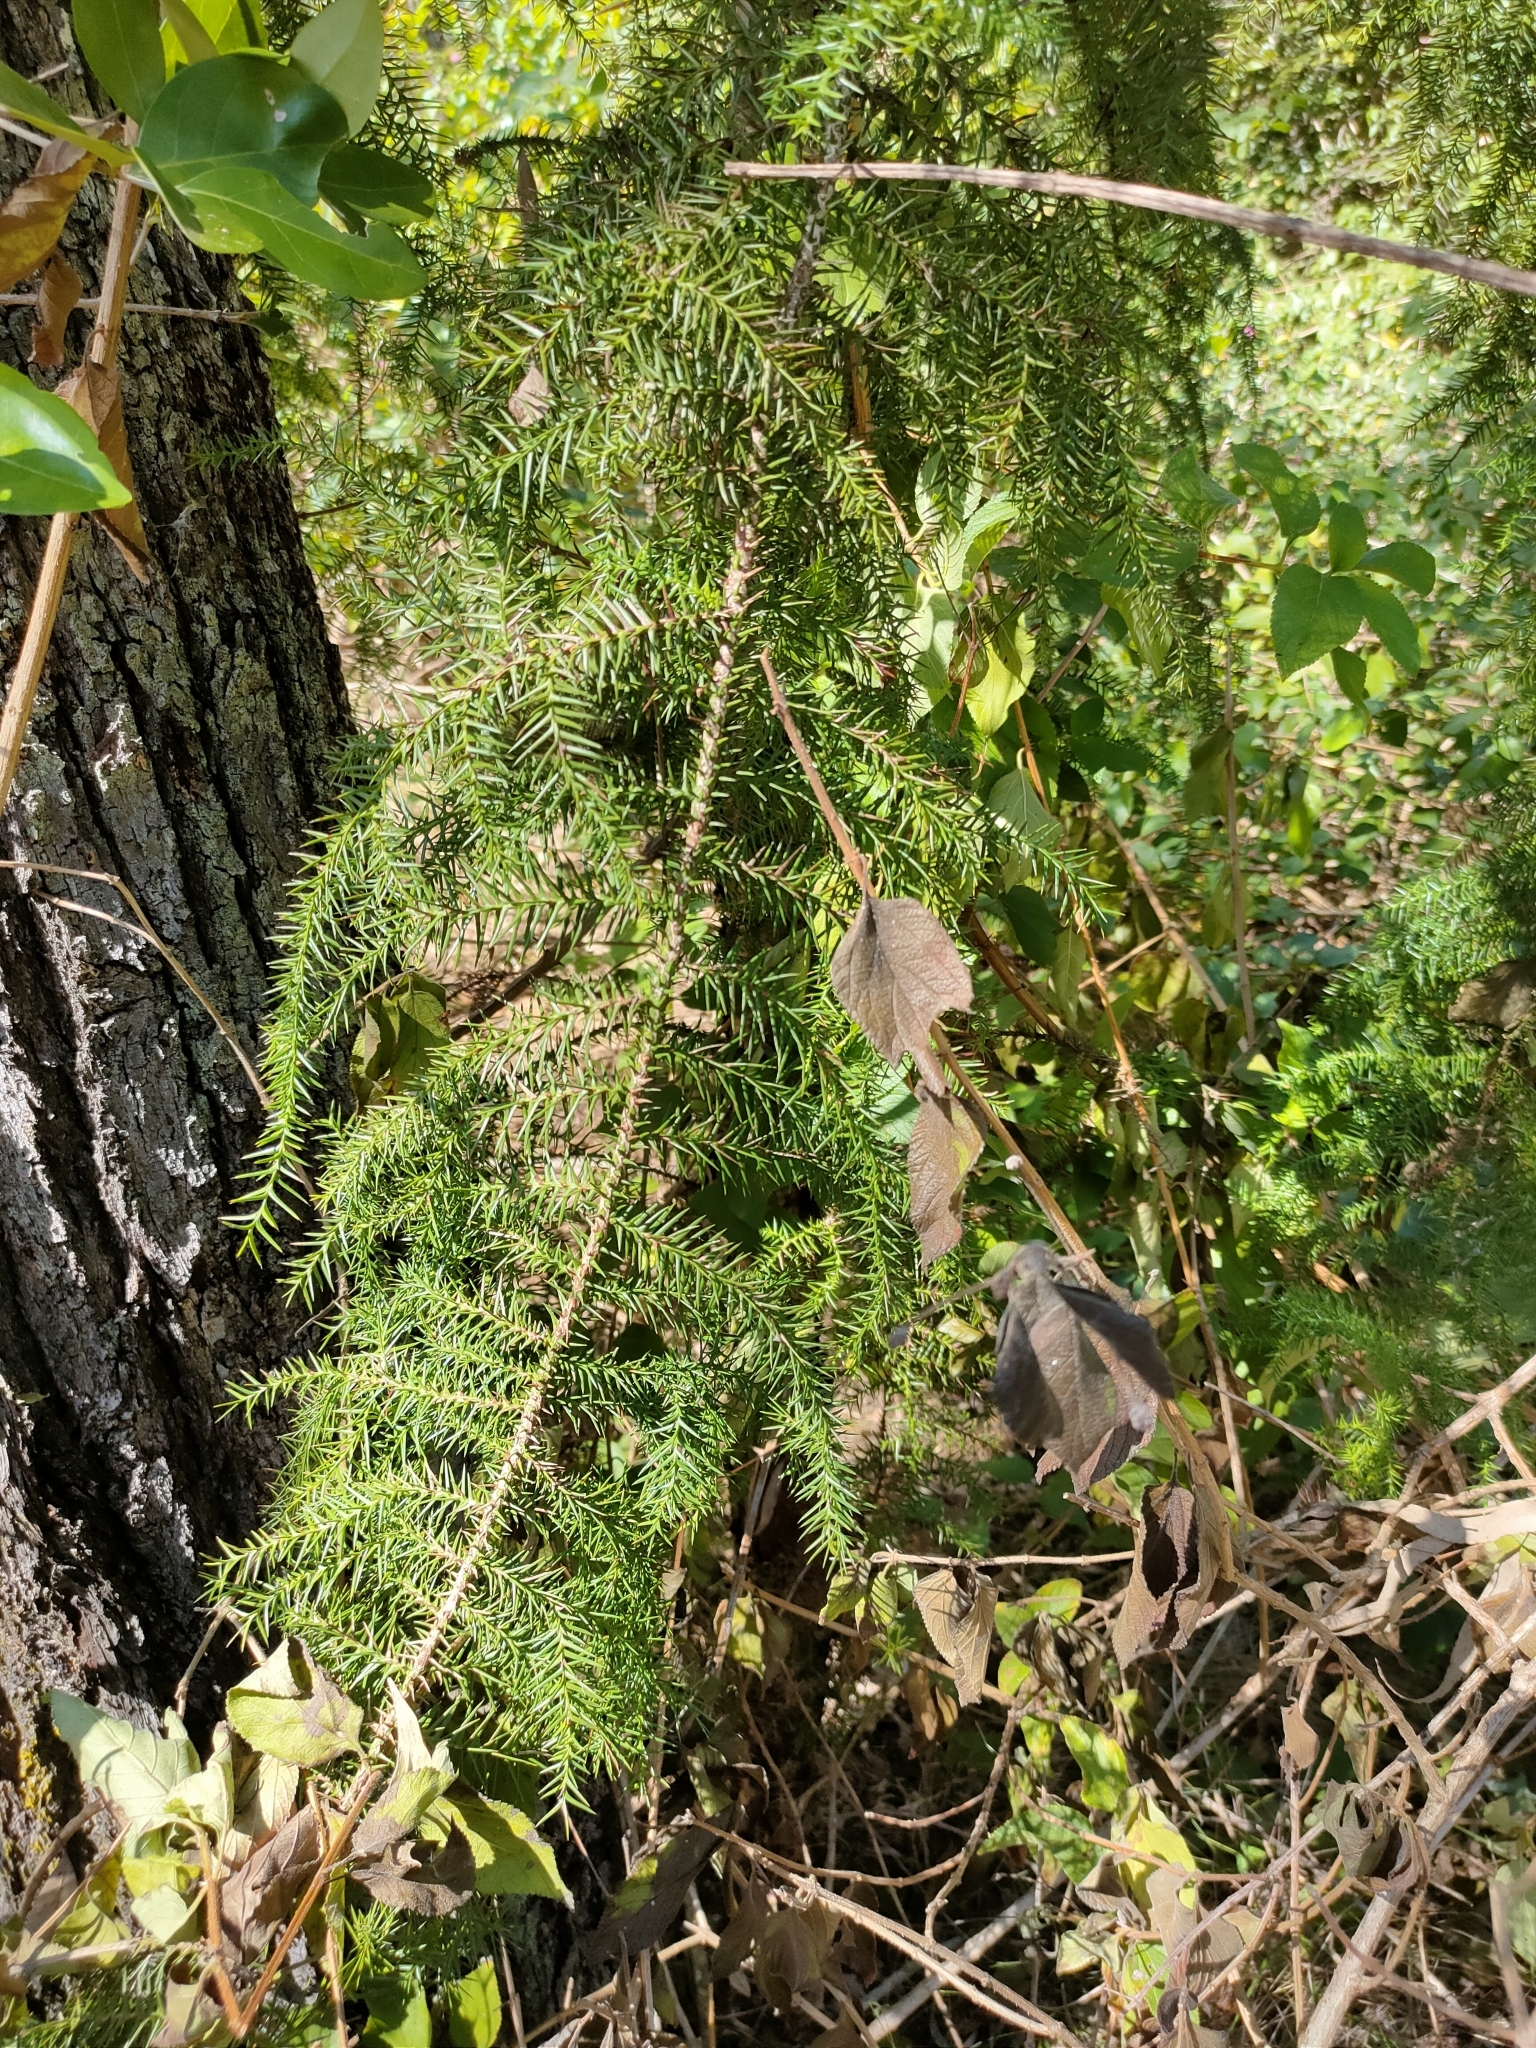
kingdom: Plantae
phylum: Tracheophyta
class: Pinopsida
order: Pinales
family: Araucariaceae
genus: Araucaria
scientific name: Araucaria cunninghamii
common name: Colonial pine
